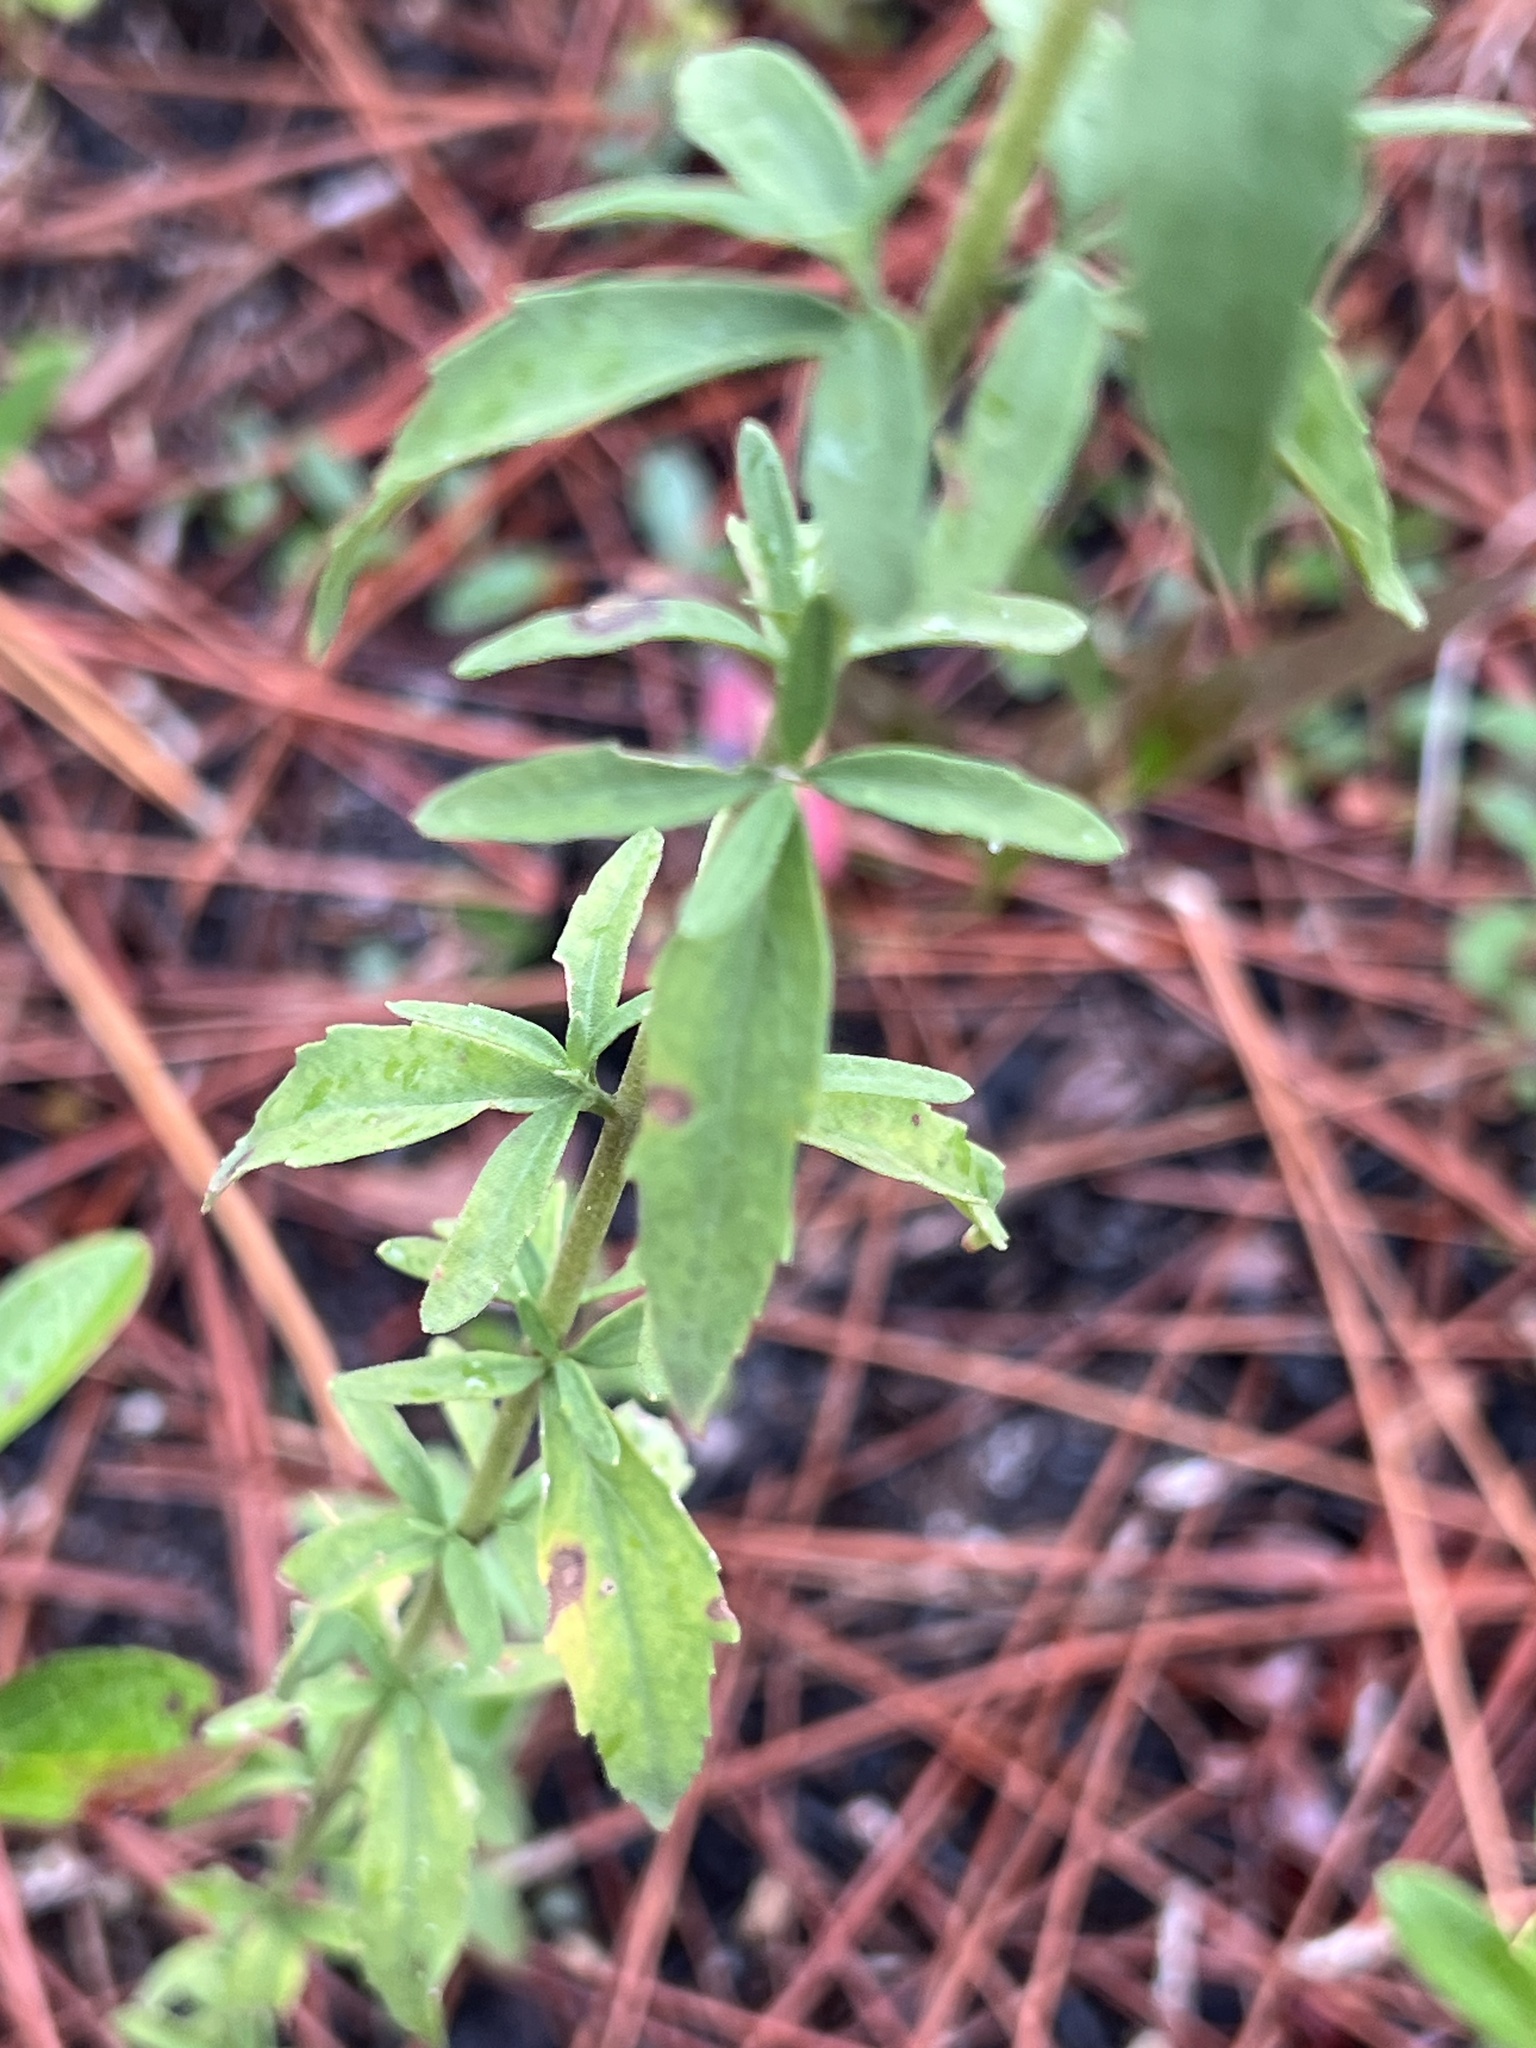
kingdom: Plantae
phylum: Tracheophyta
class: Magnoliopsida
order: Asterales
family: Asteraceae
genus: Eupatorium
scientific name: Eupatorium mohrii
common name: Mohr's thoroughwort
